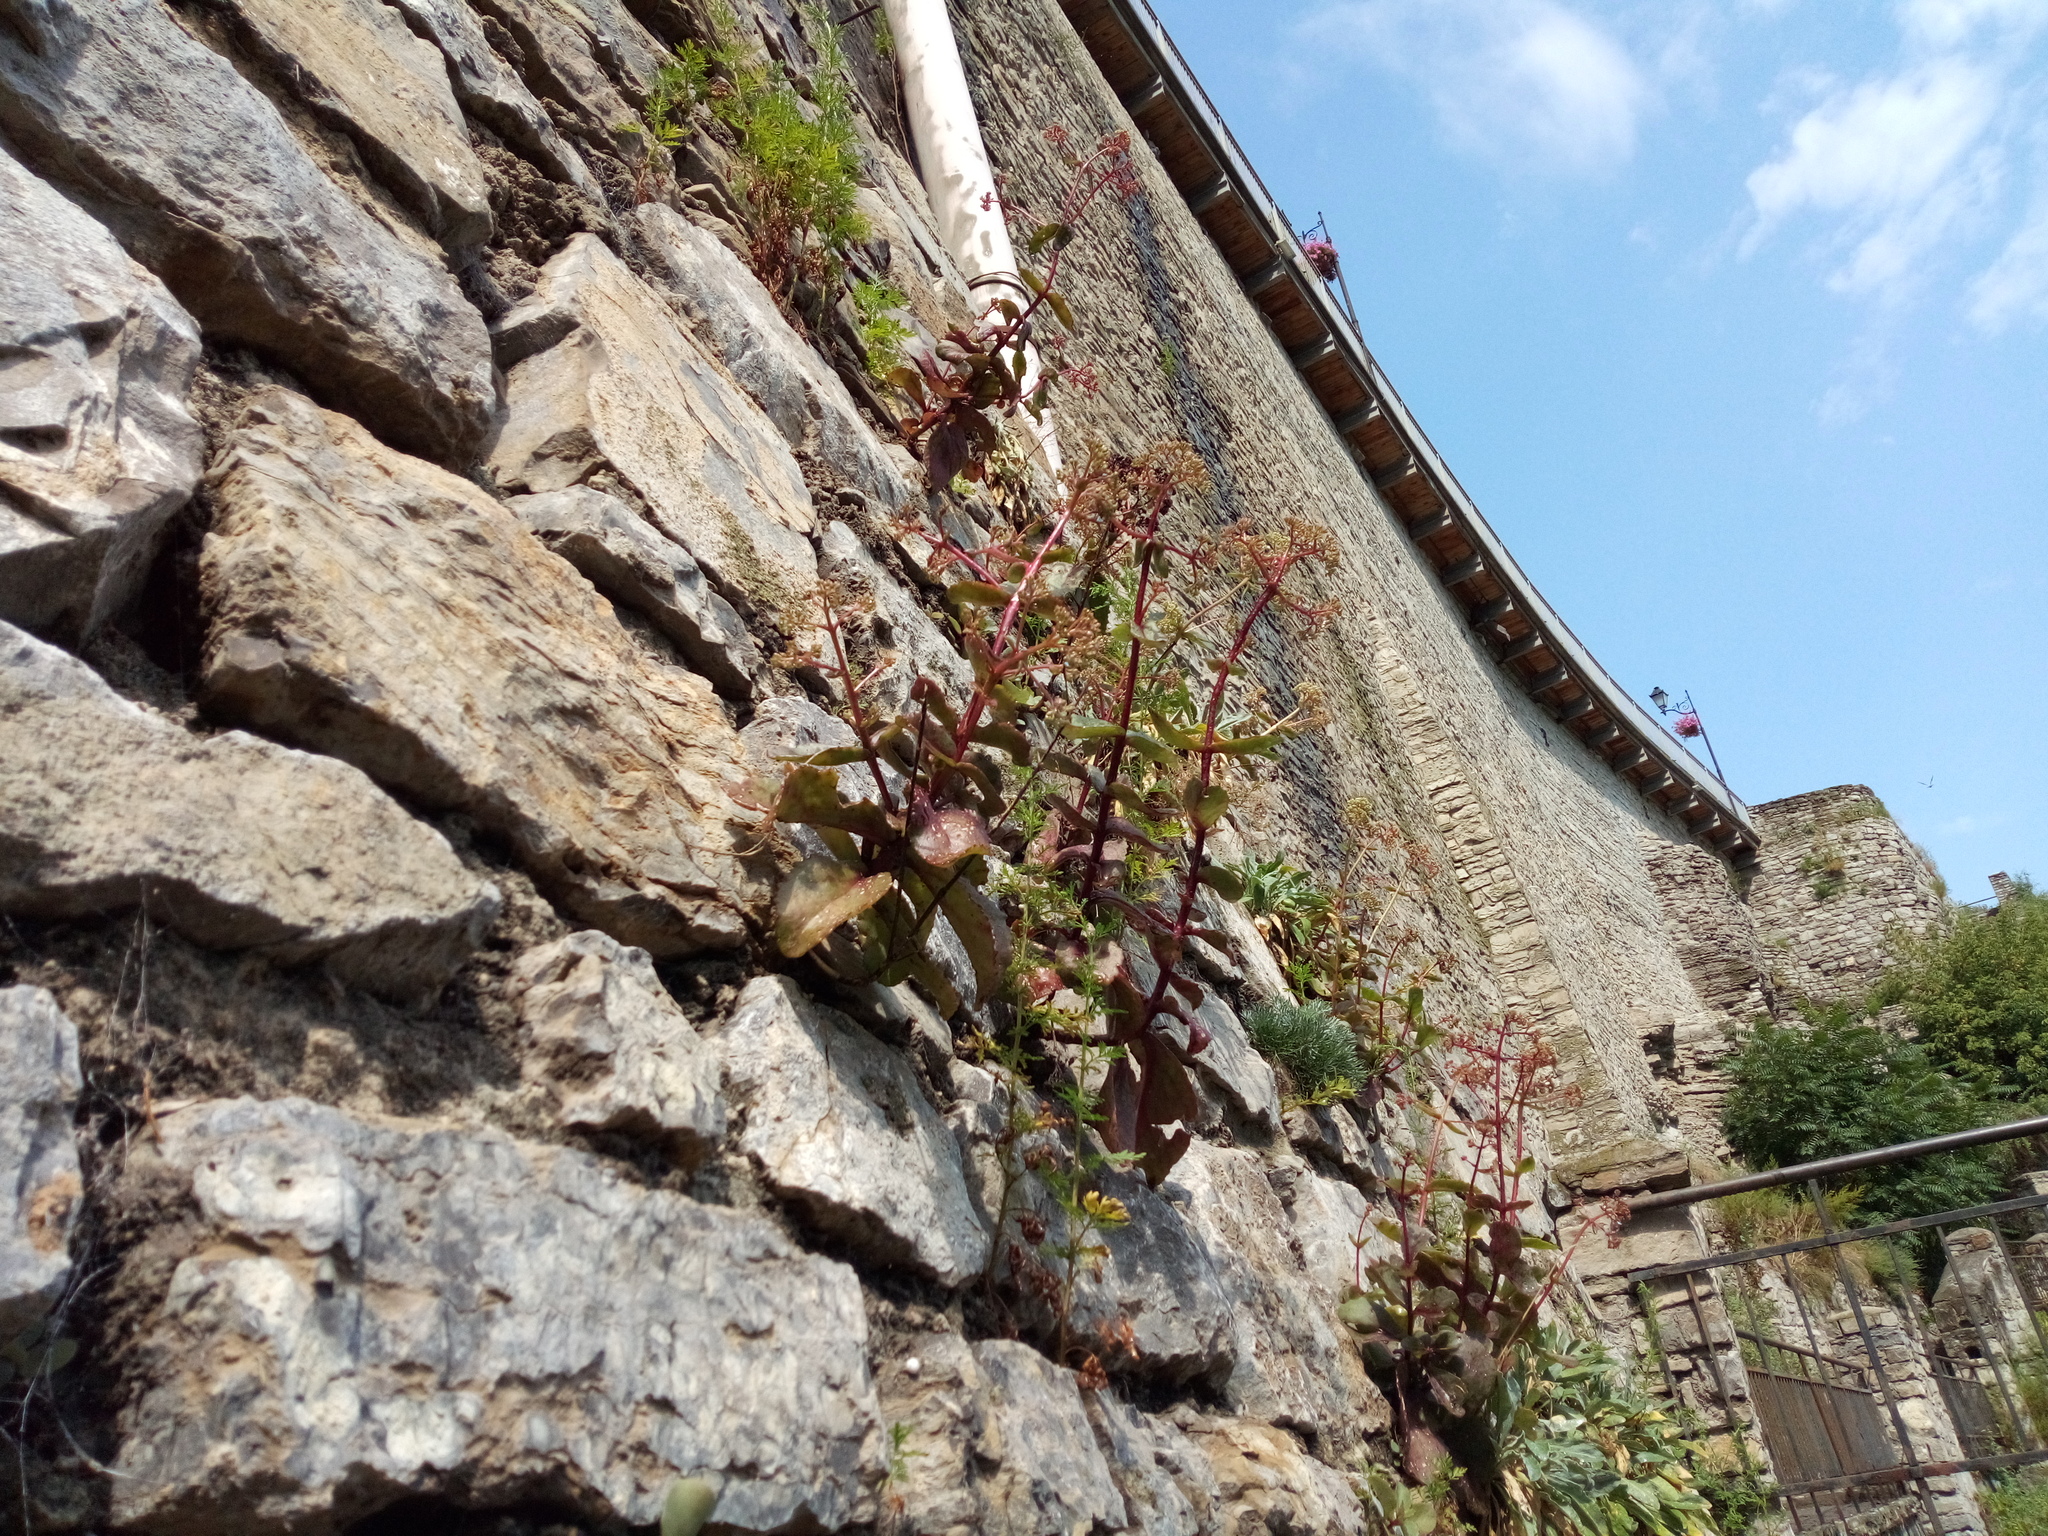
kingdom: Plantae
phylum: Tracheophyta
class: Magnoliopsida
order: Saxifragales
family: Crassulaceae
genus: Hylotelephium
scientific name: Hylotelephium maximum
